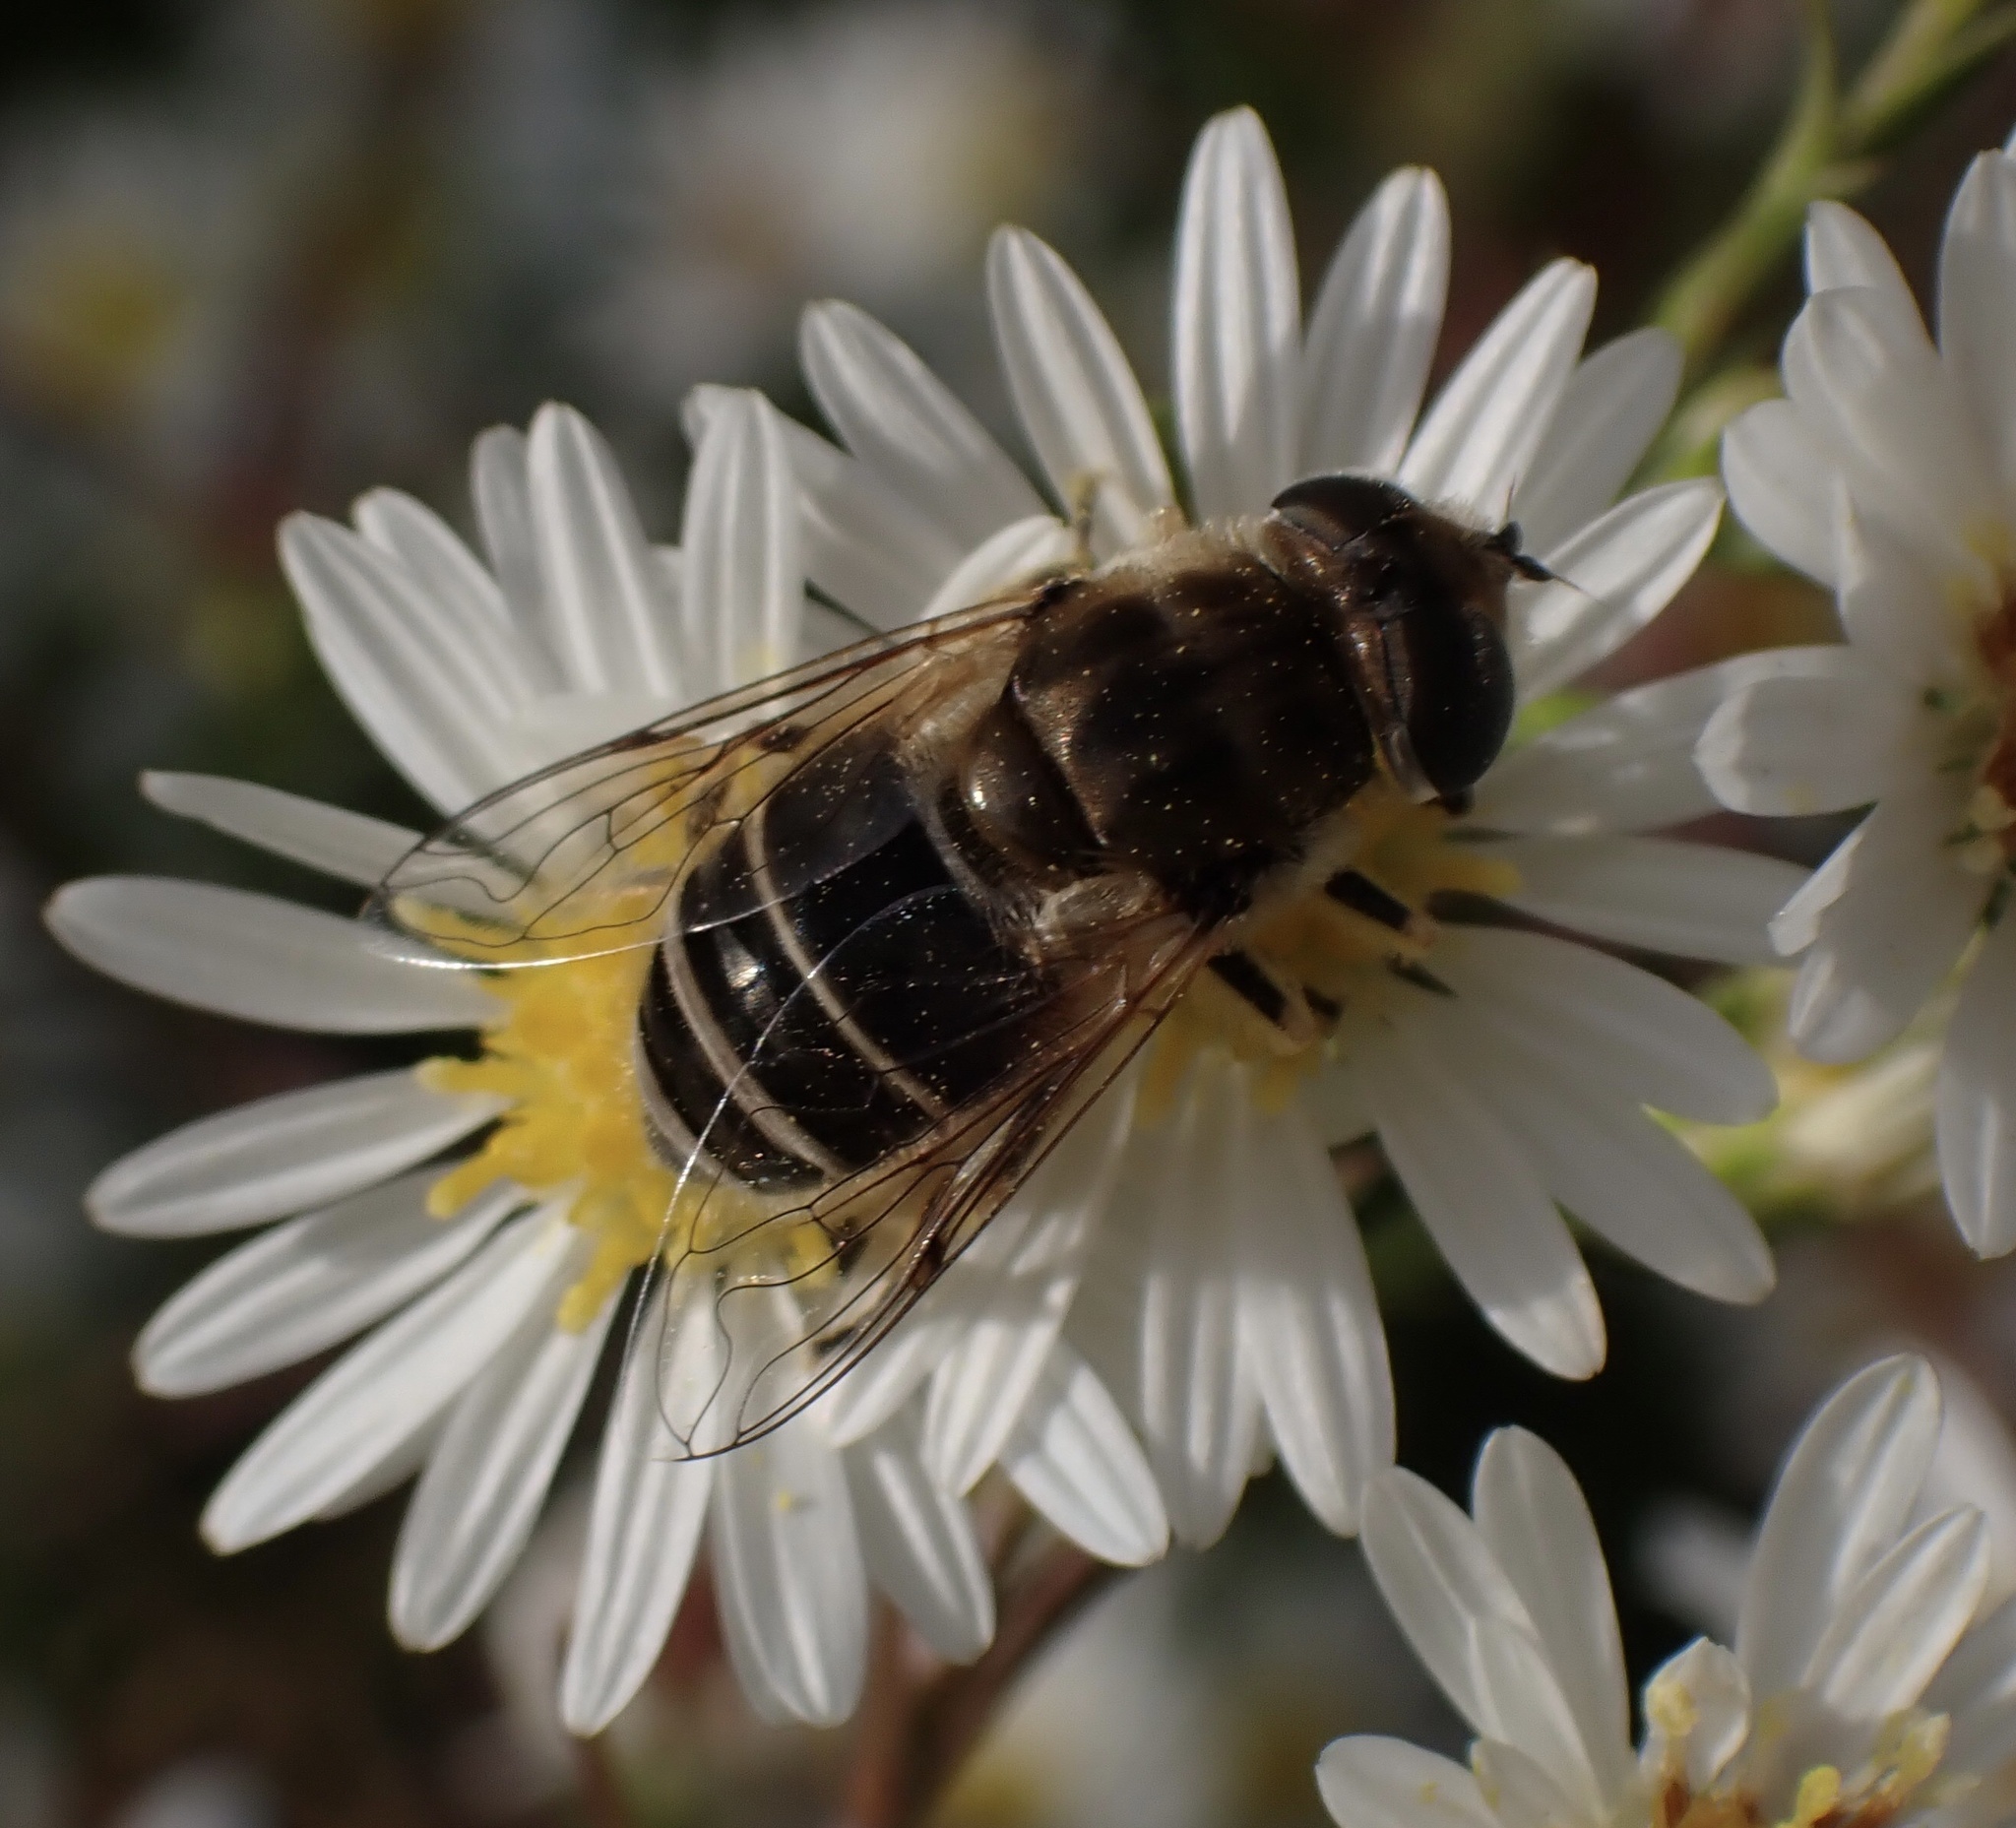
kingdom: Animalia
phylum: Arthropoda
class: Insecta
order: Diptera
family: Syrphidae
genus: Eristalis
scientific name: Eristalis arbustorum
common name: Hover fly
